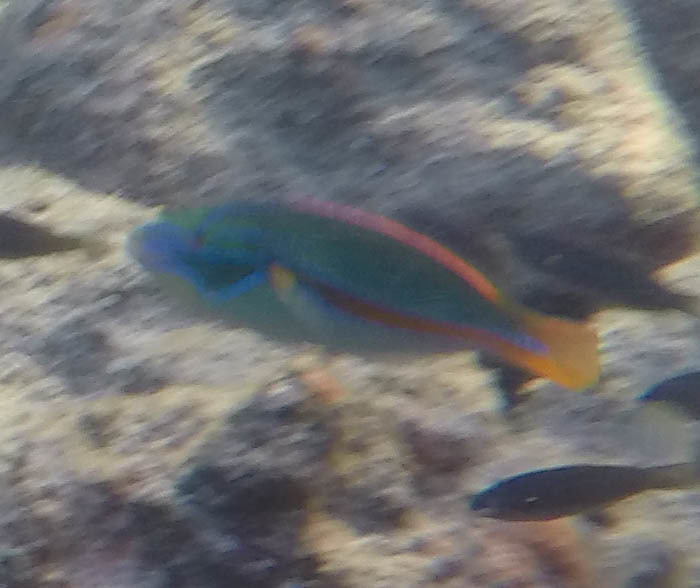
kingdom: Animalia
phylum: Chordata
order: Perciformes
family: Labridae
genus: Stethojulis
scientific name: Stethojulis balteata
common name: Belted wrasse
